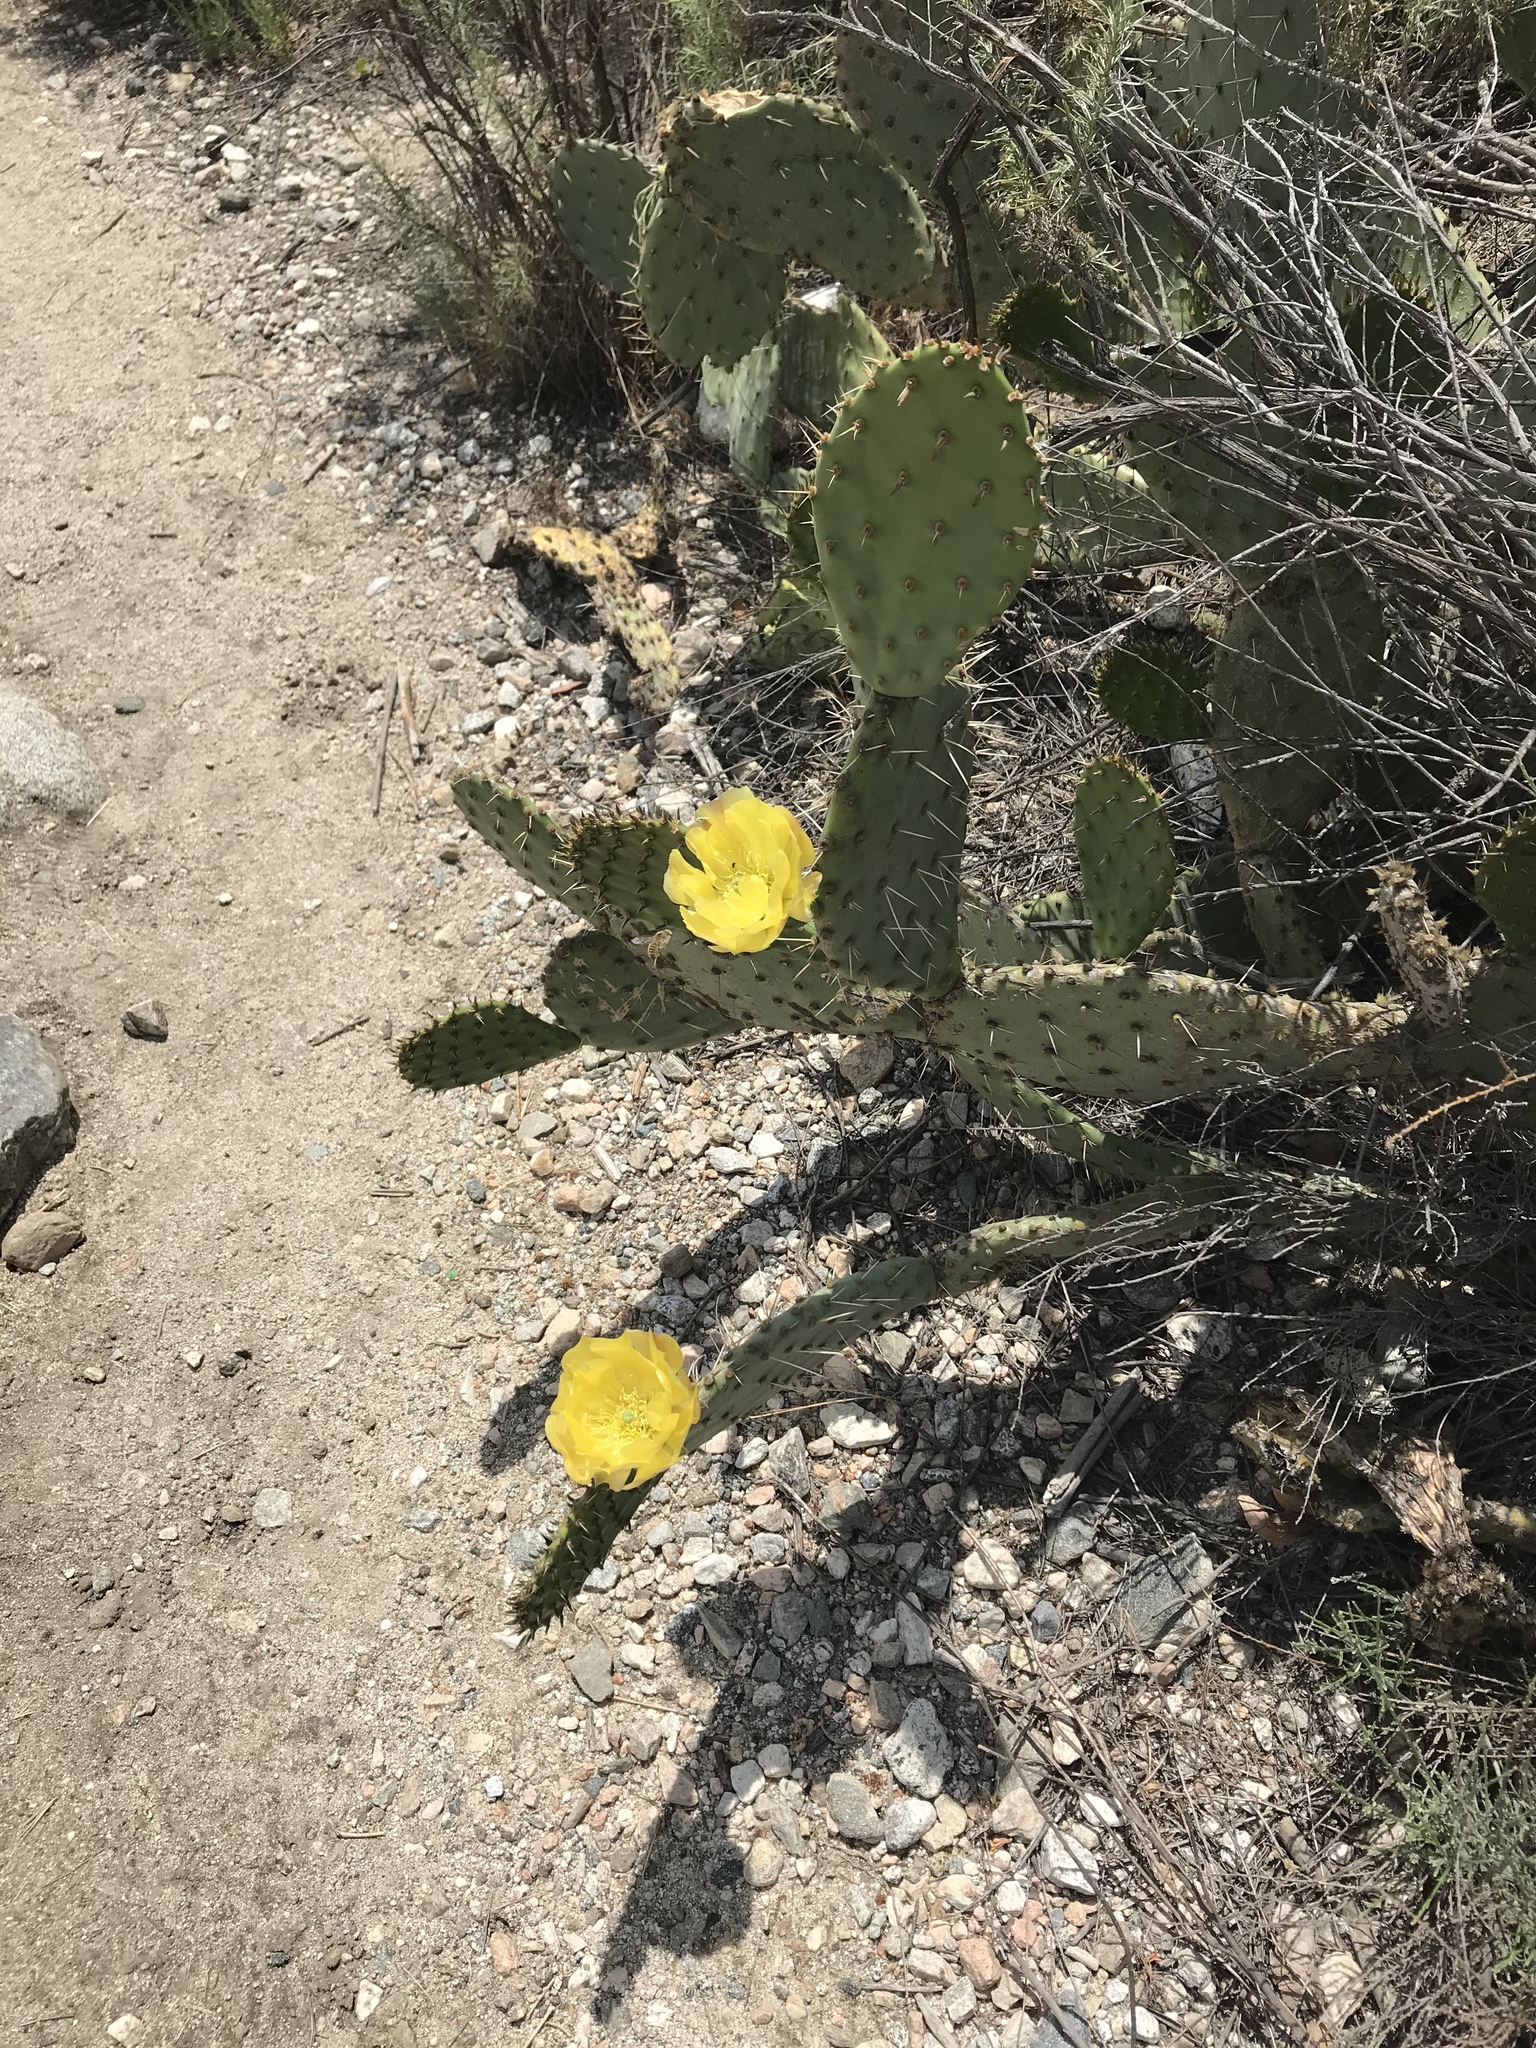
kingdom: Plantae
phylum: Tracheophyta
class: Magnoliopsida
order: Caryophyllales
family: Cactaceae
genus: Opuntia
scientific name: Opuntia
